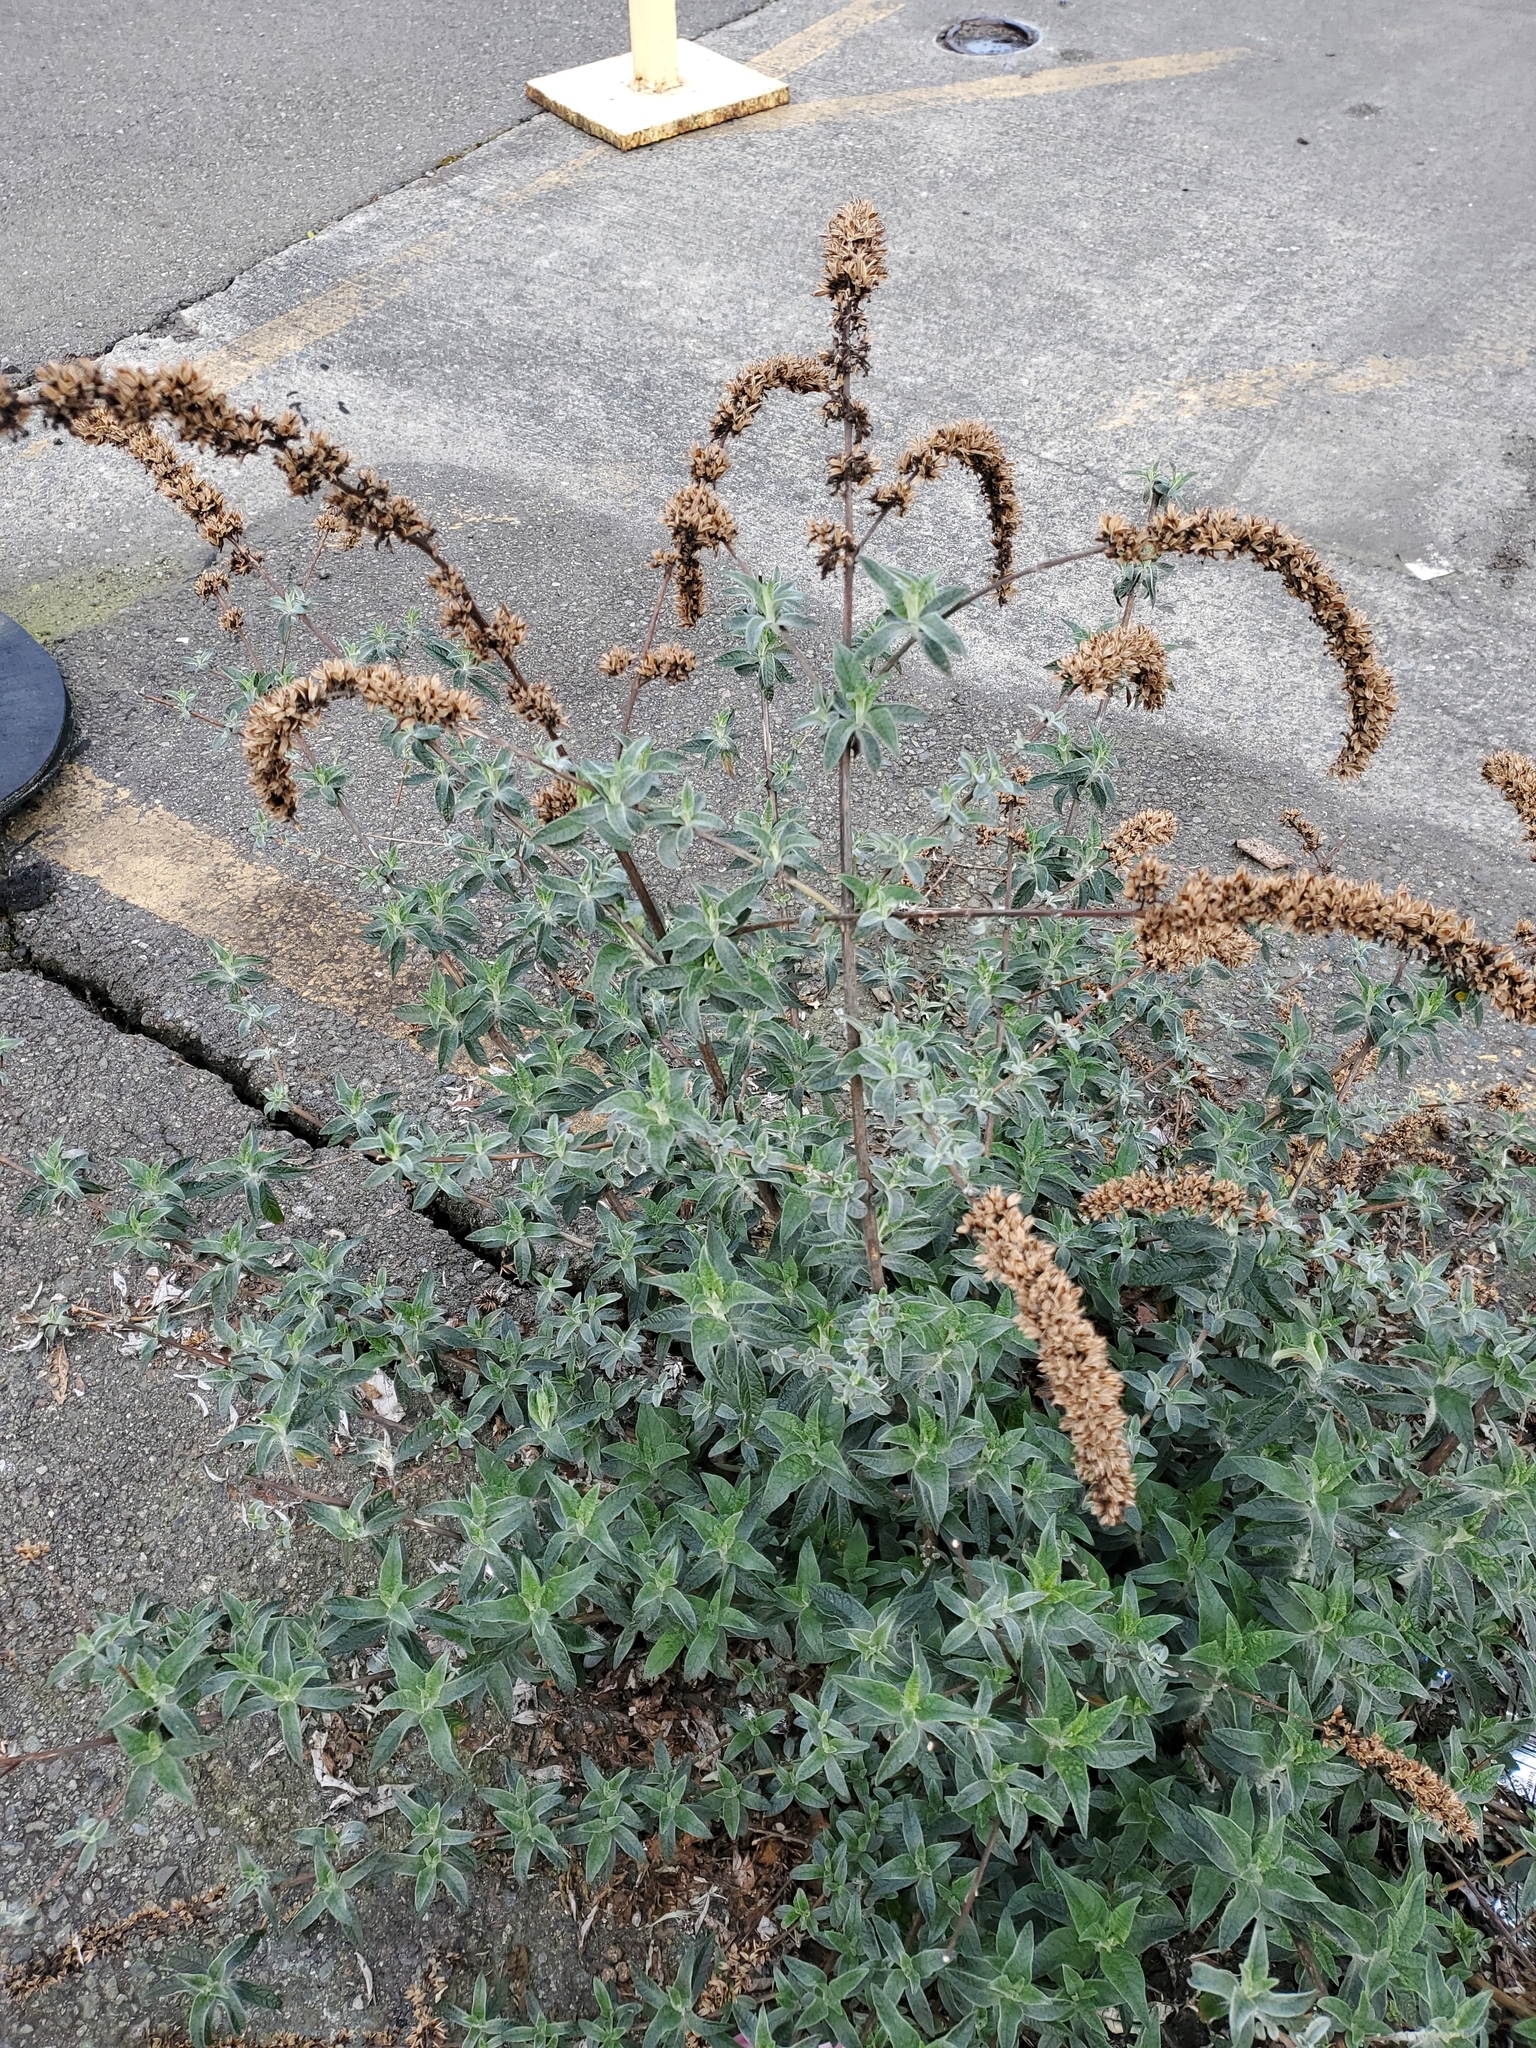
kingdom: Plantae
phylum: Tracheophyta
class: Magnoliopsida
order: Lamiales
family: Scrophulariaceae
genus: Buddleja
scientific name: Buddleja davidii
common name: Butterfly-bush
